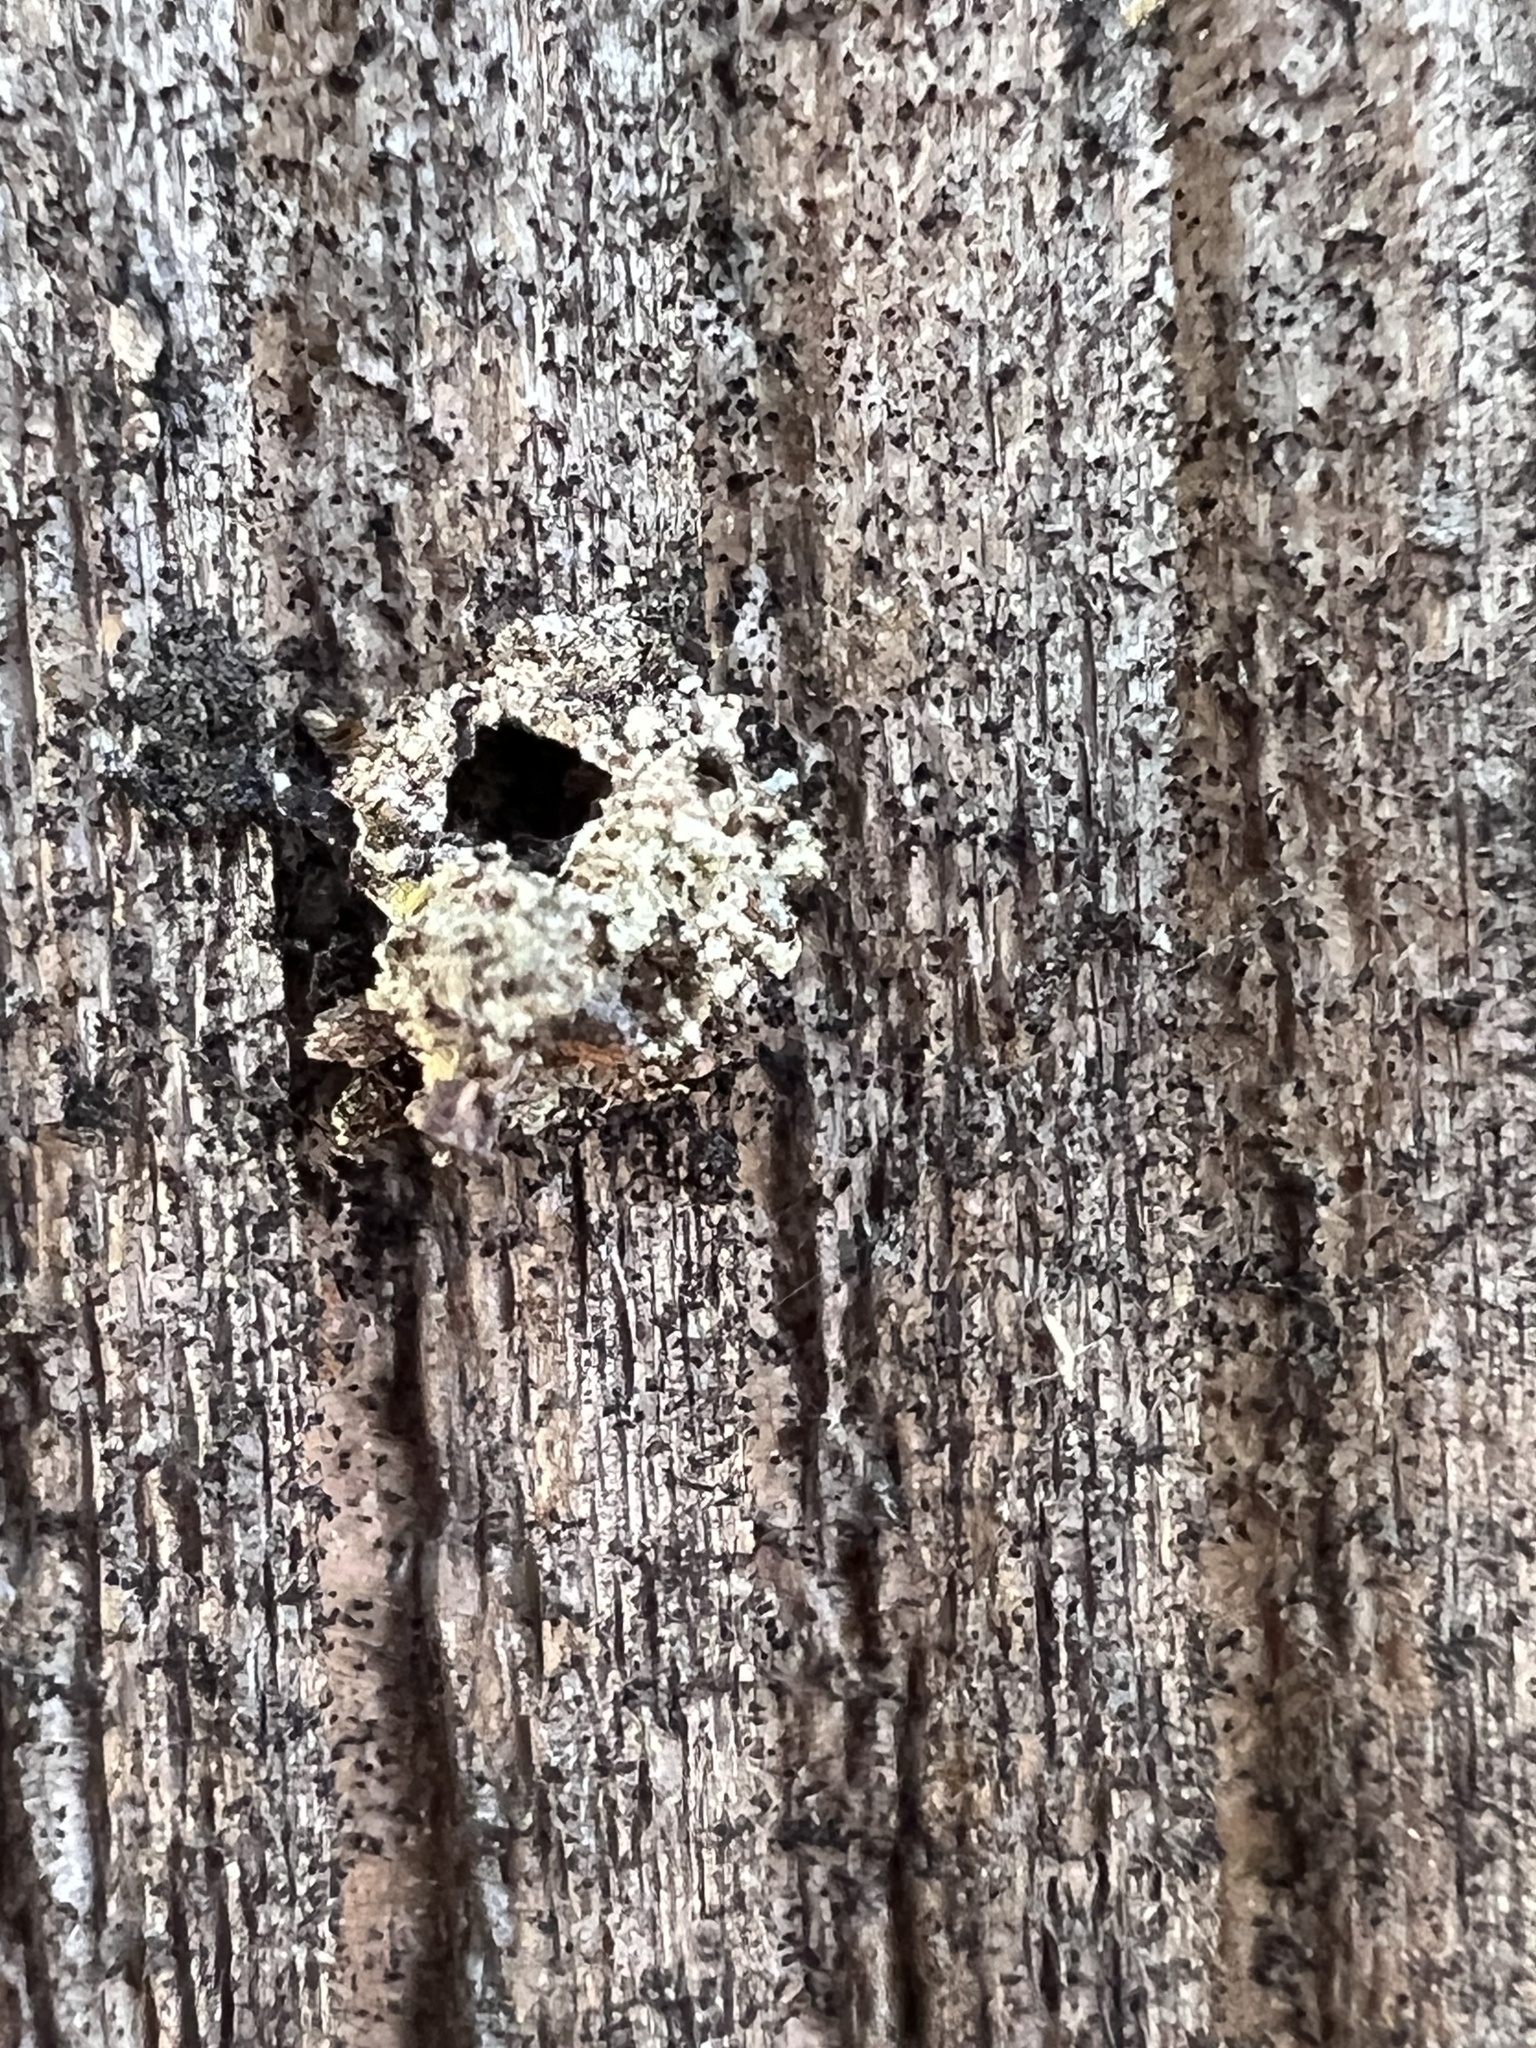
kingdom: Animalia
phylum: Arthropoda
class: Insecta
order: Neuroptera
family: Chrysopidae
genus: Leucochrysa
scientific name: Leucochrysa pavida
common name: Lichen-carrying green lacewing
